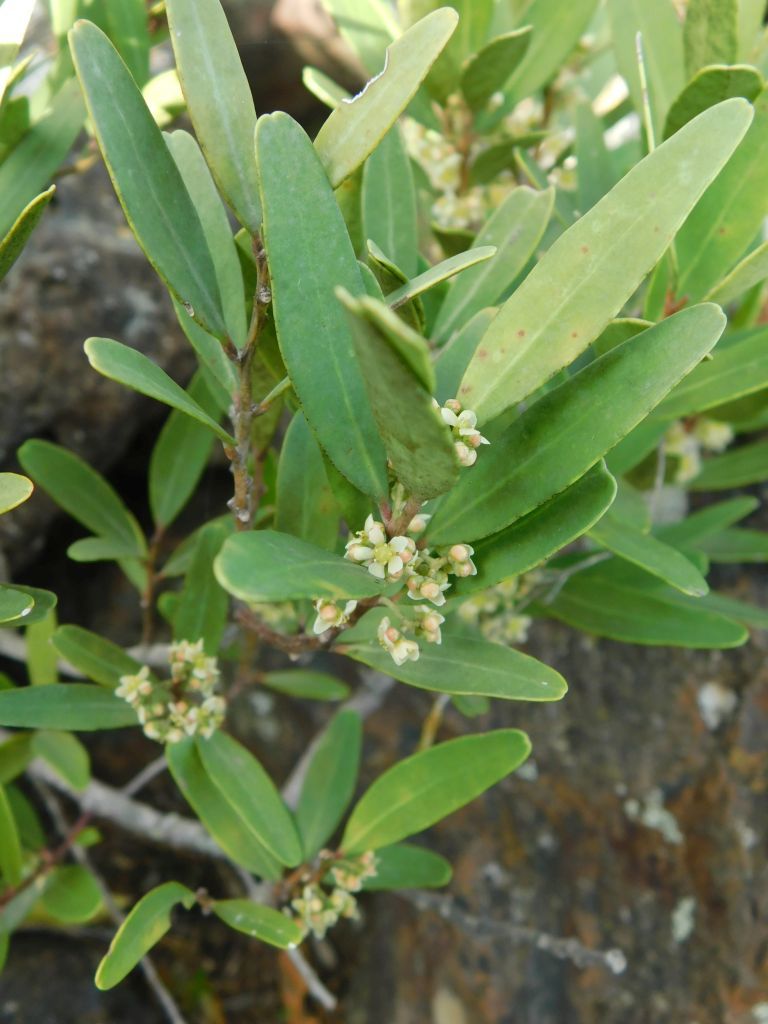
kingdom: Plantae
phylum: Tracheophyta
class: Magnoliopsida
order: Celastrales
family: Celastraceae
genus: Gymnosporia
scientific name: Gymnosporia laurina
